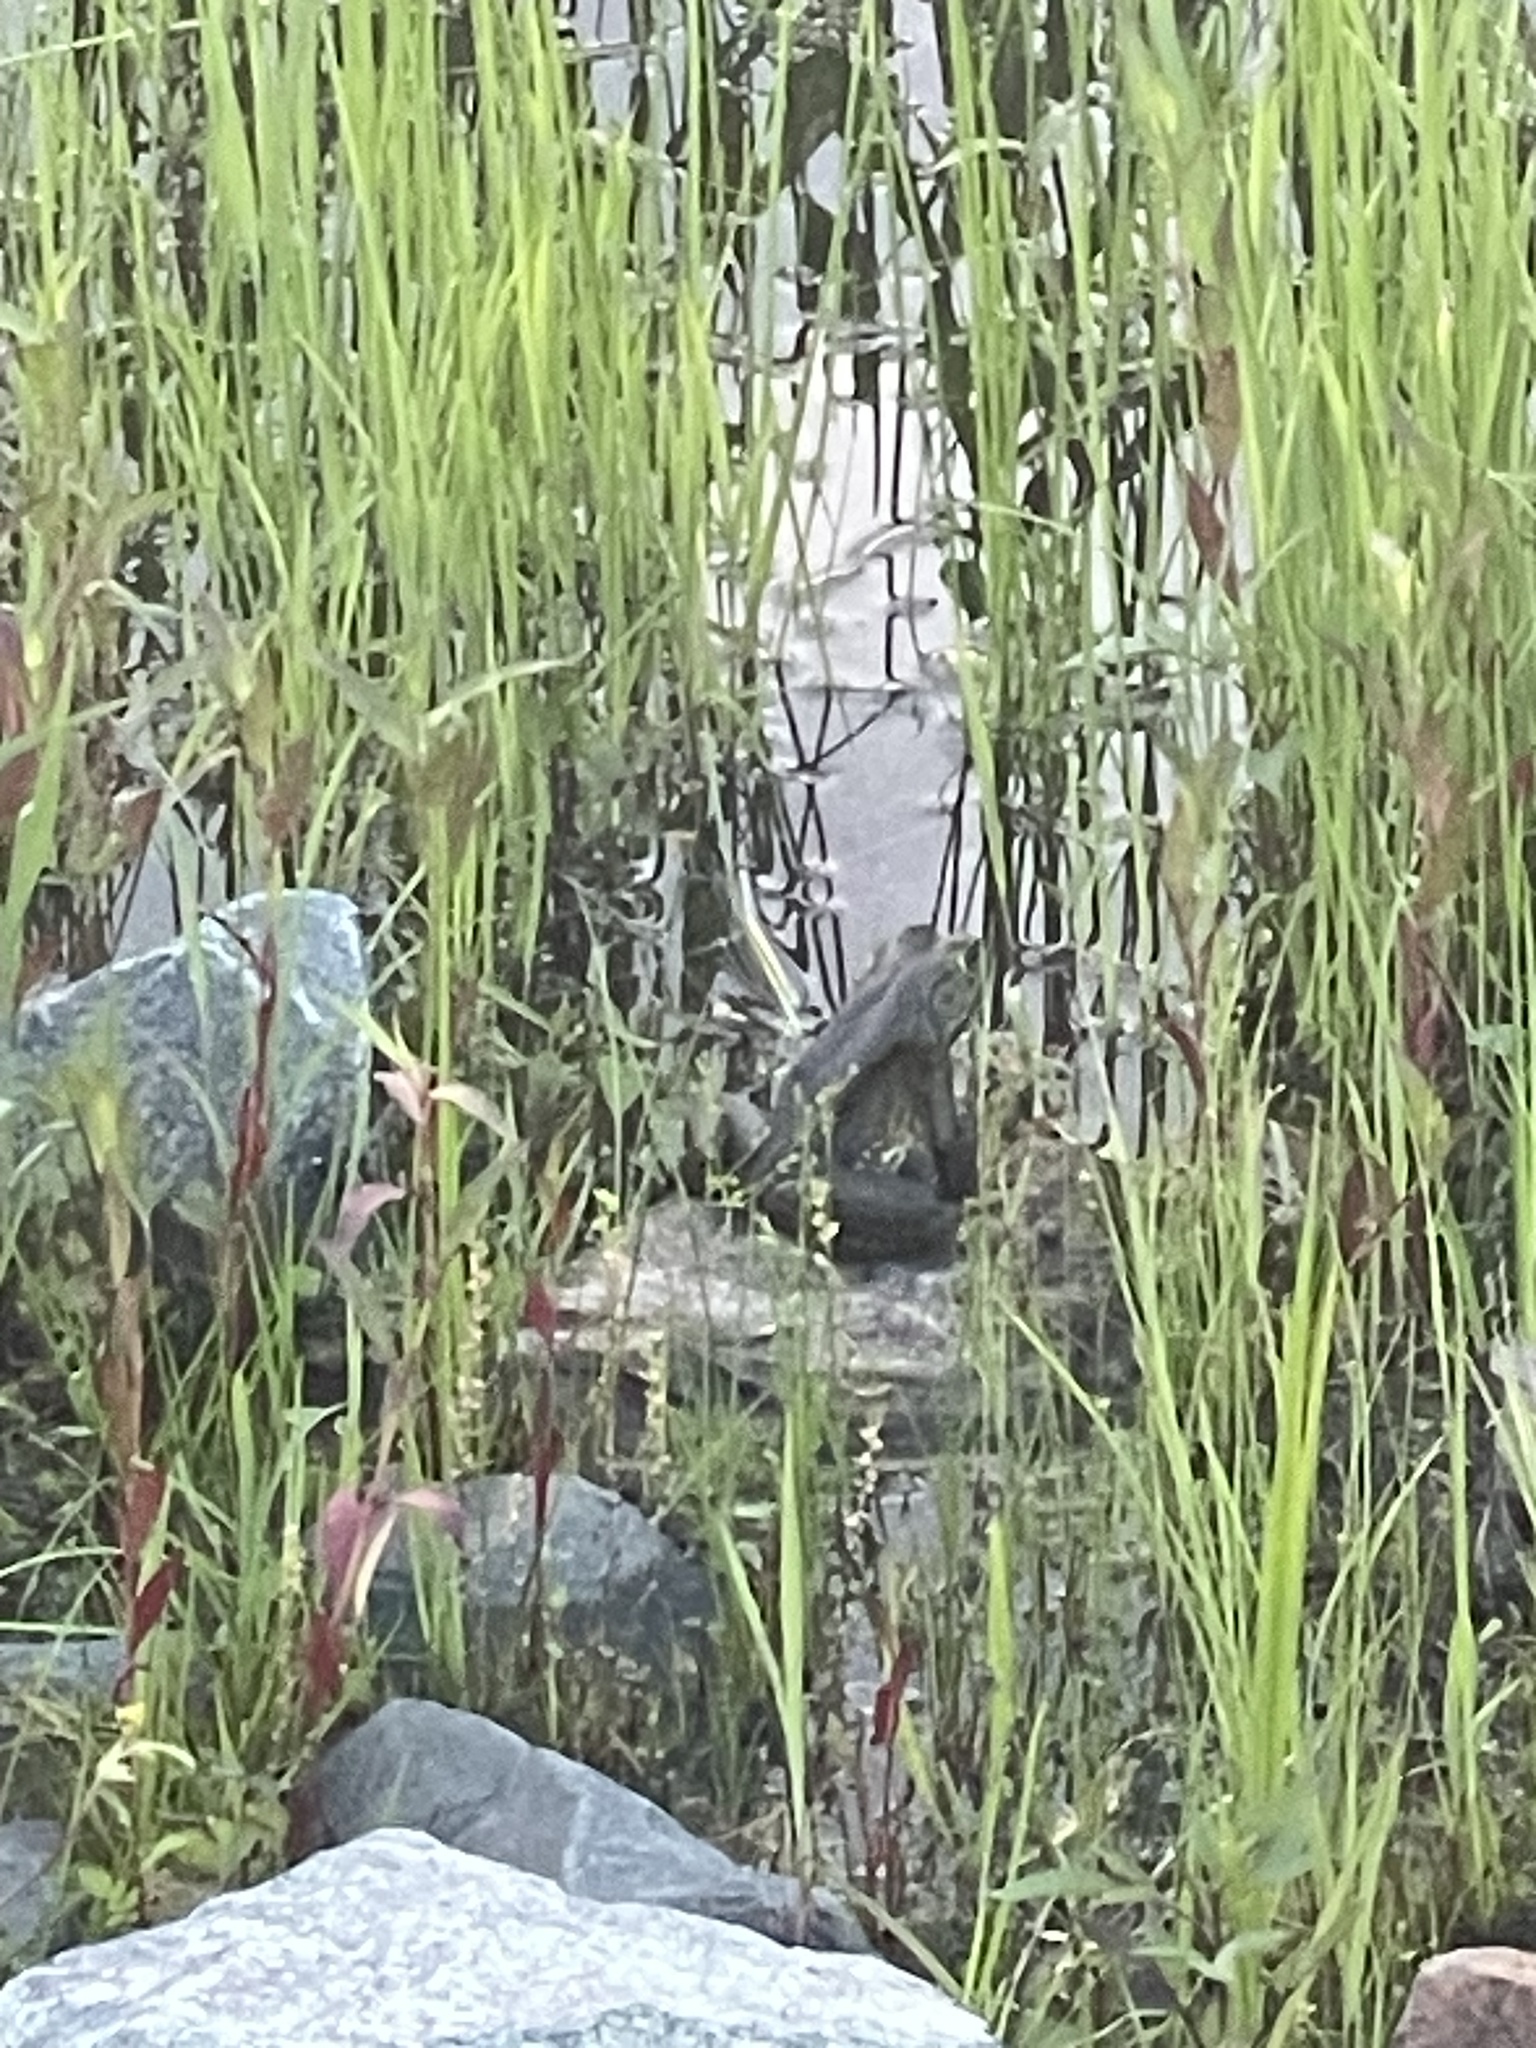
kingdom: Animalia
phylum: Chordata
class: Amphibia
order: Anura
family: Ranidae
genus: Lithobates
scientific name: Lithobates catesbeianus
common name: American bullfrog
